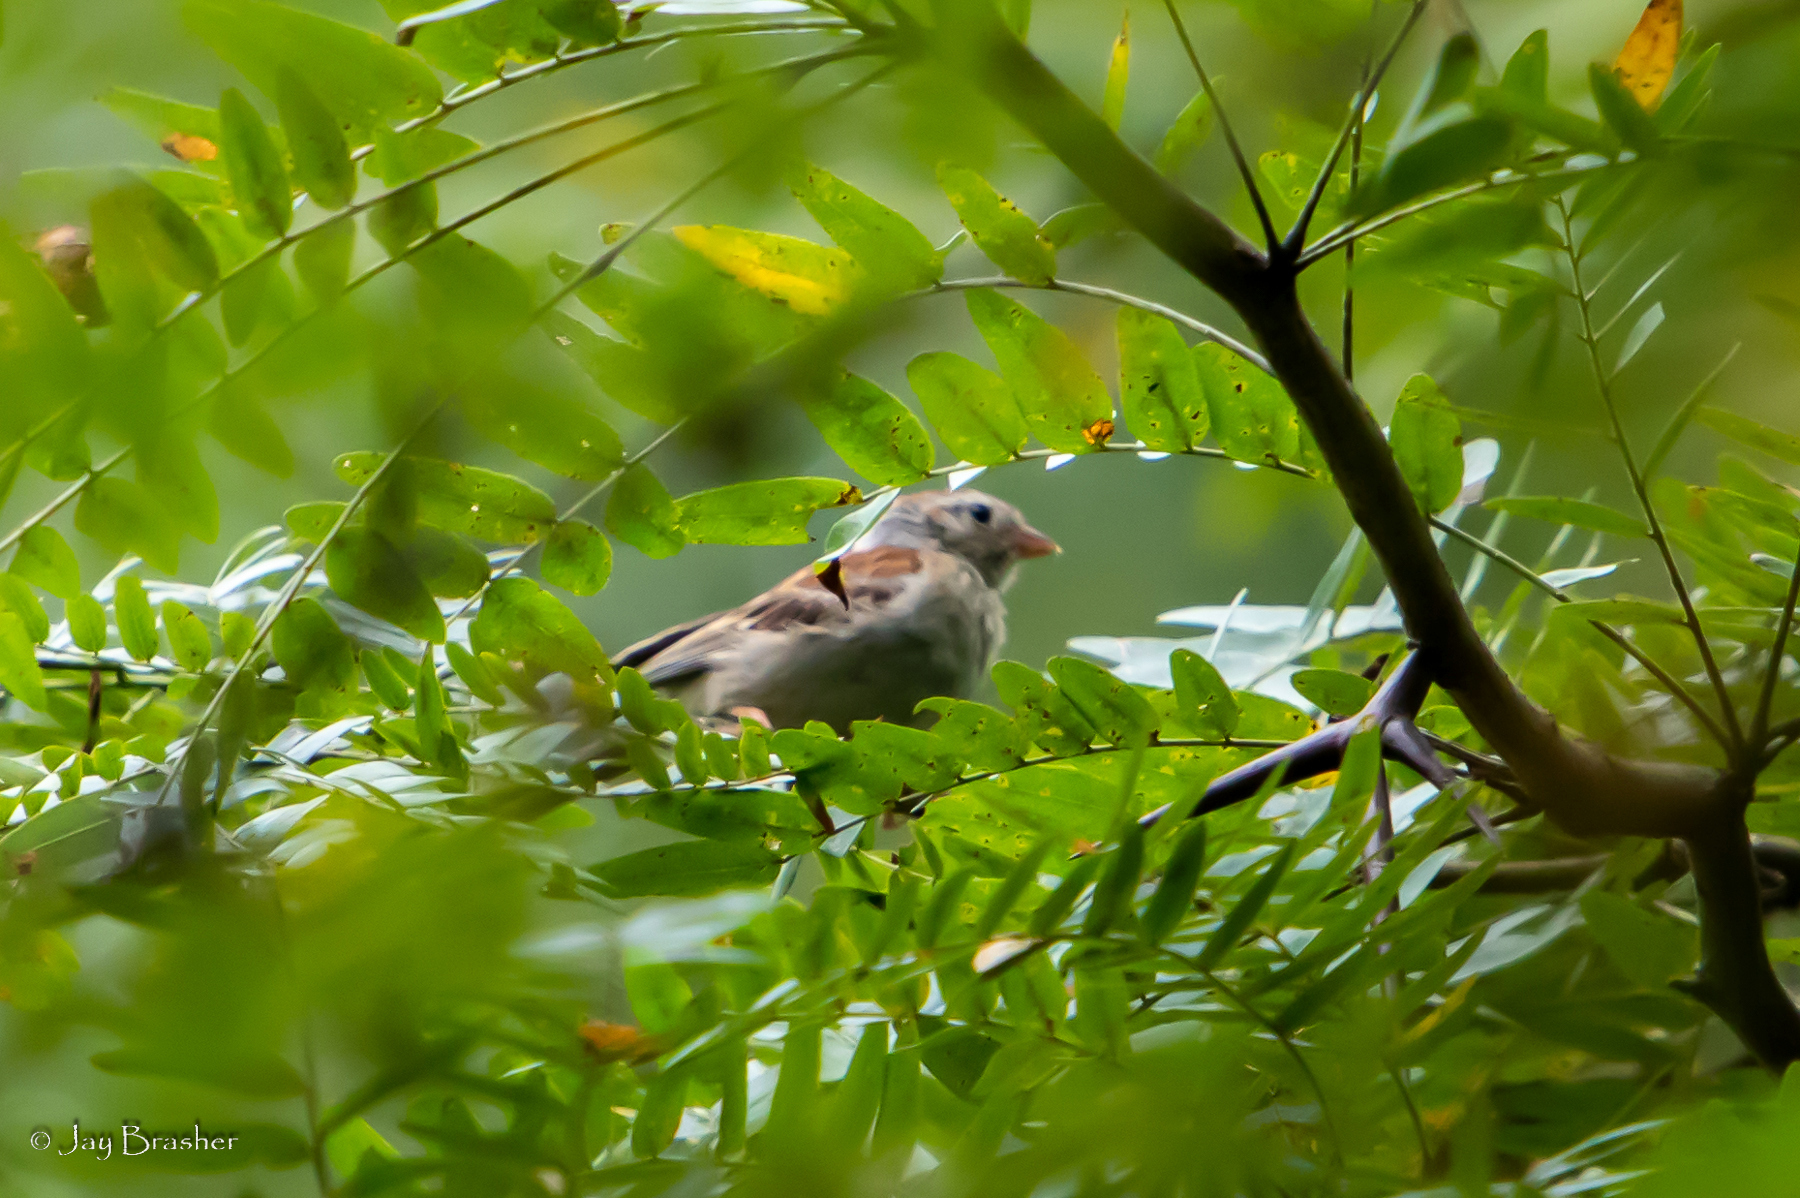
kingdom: Animalia
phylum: Chordata
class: Aves
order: Passeriformes
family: Passerellidae
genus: Spizella
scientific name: Spizella pusilla
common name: Field sparrow
